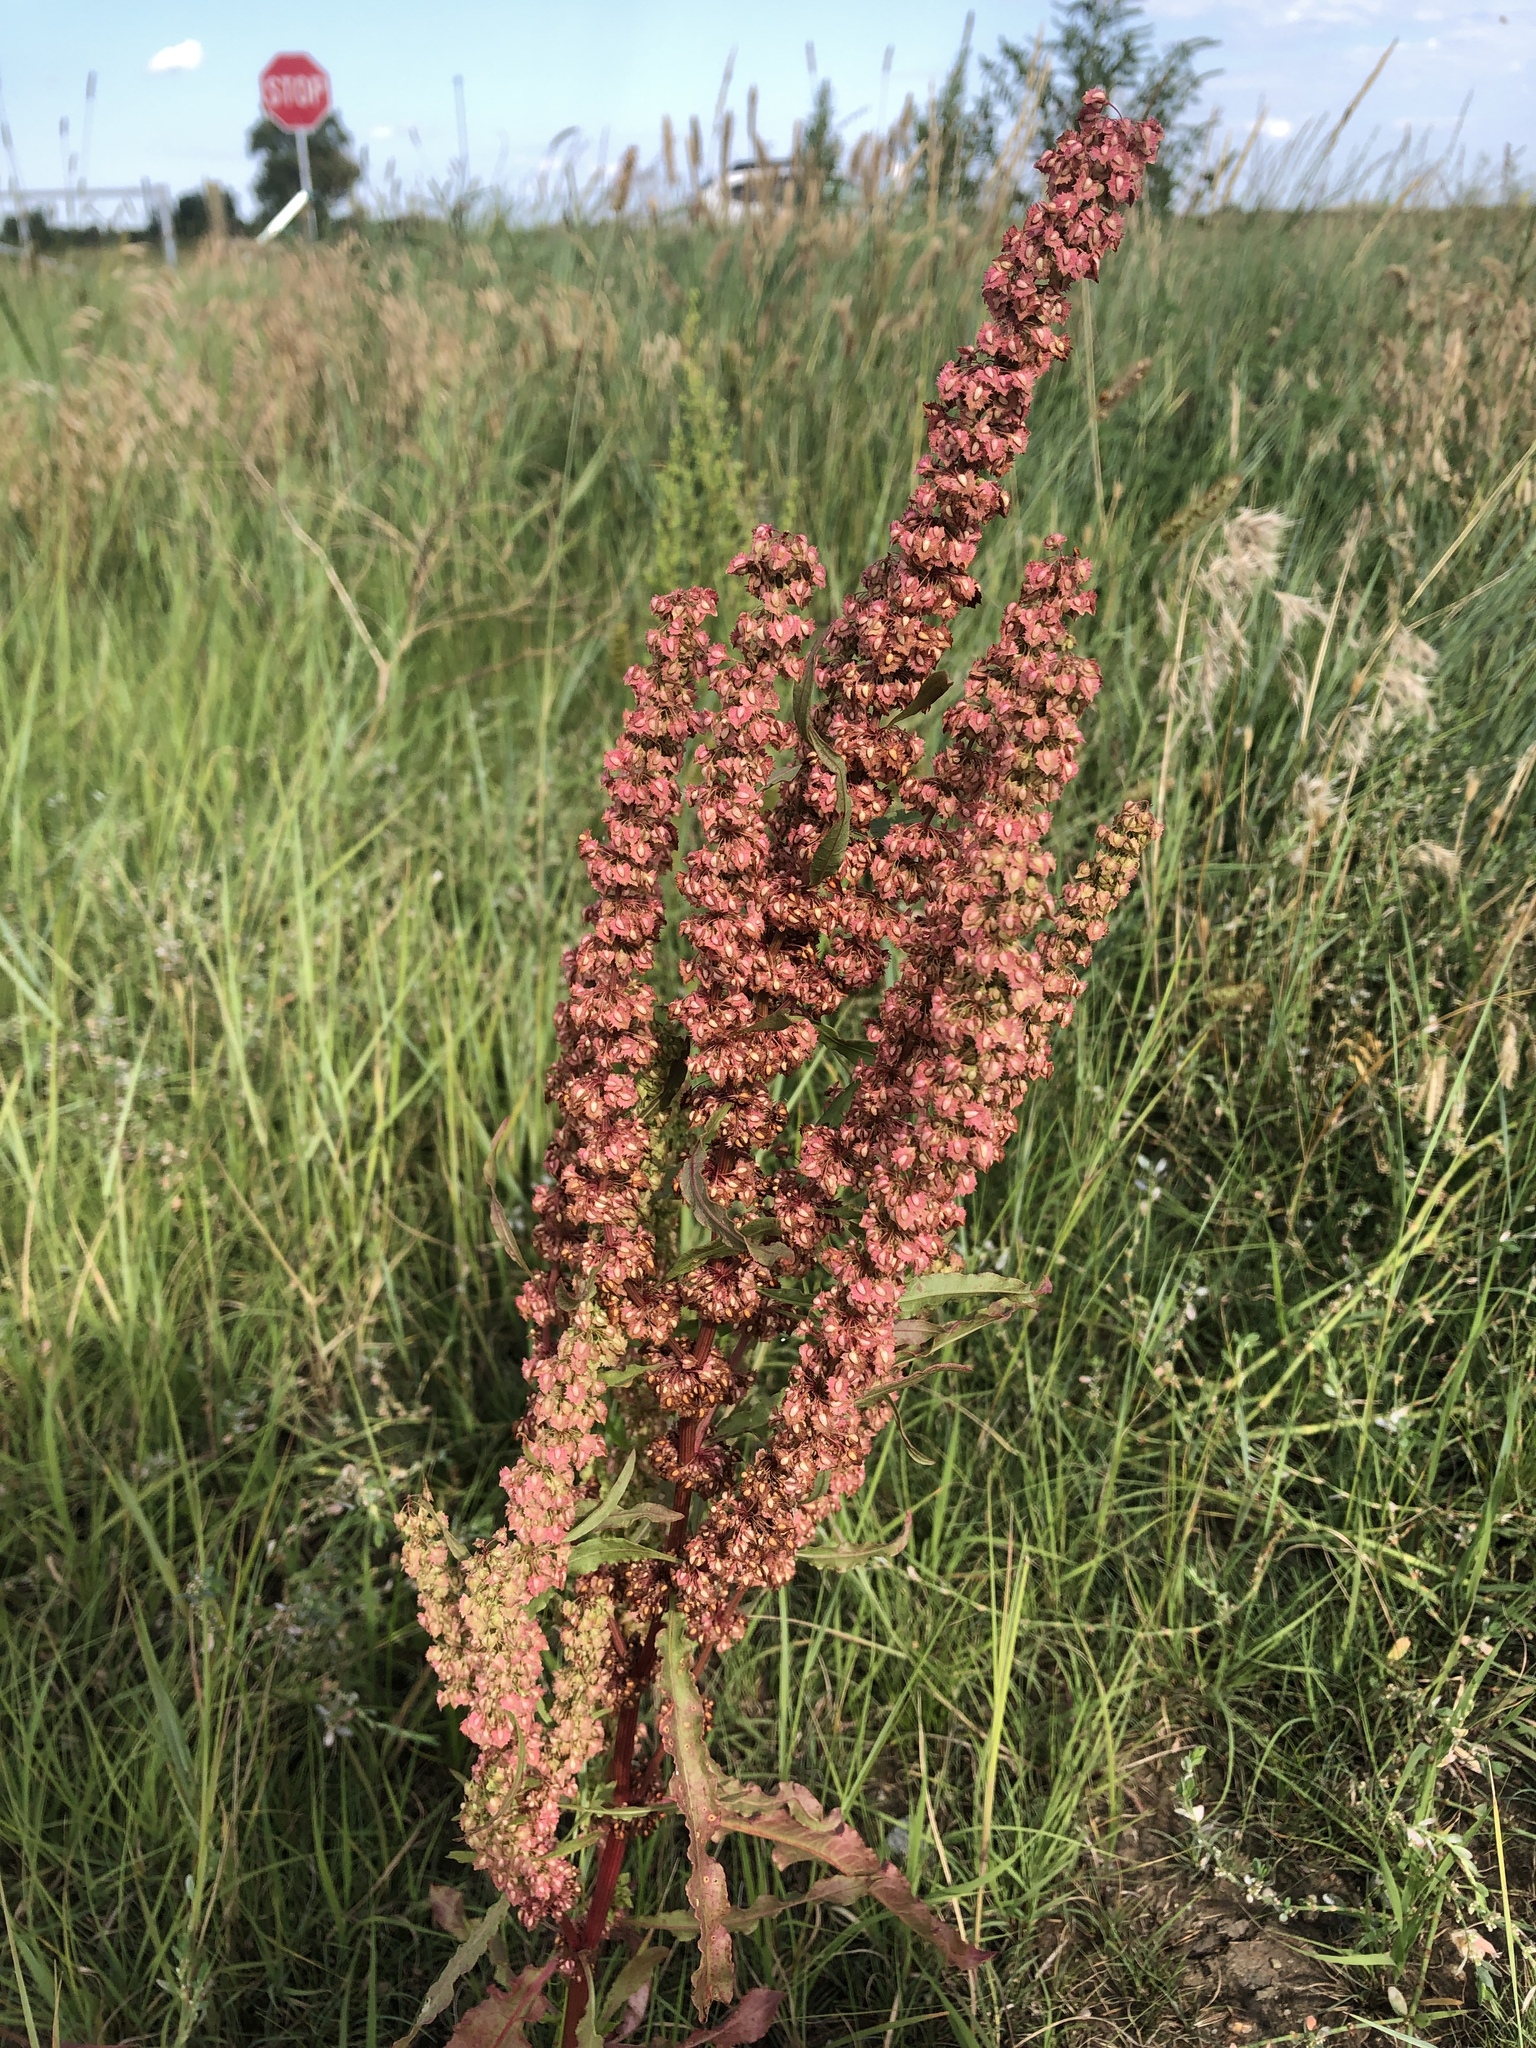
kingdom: Plantae
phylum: Tracheophyta
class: Magnoliopsida
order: Caryophyllales
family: Polygonaceae
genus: Rumex
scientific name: Rumex crispus
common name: Curled dock
